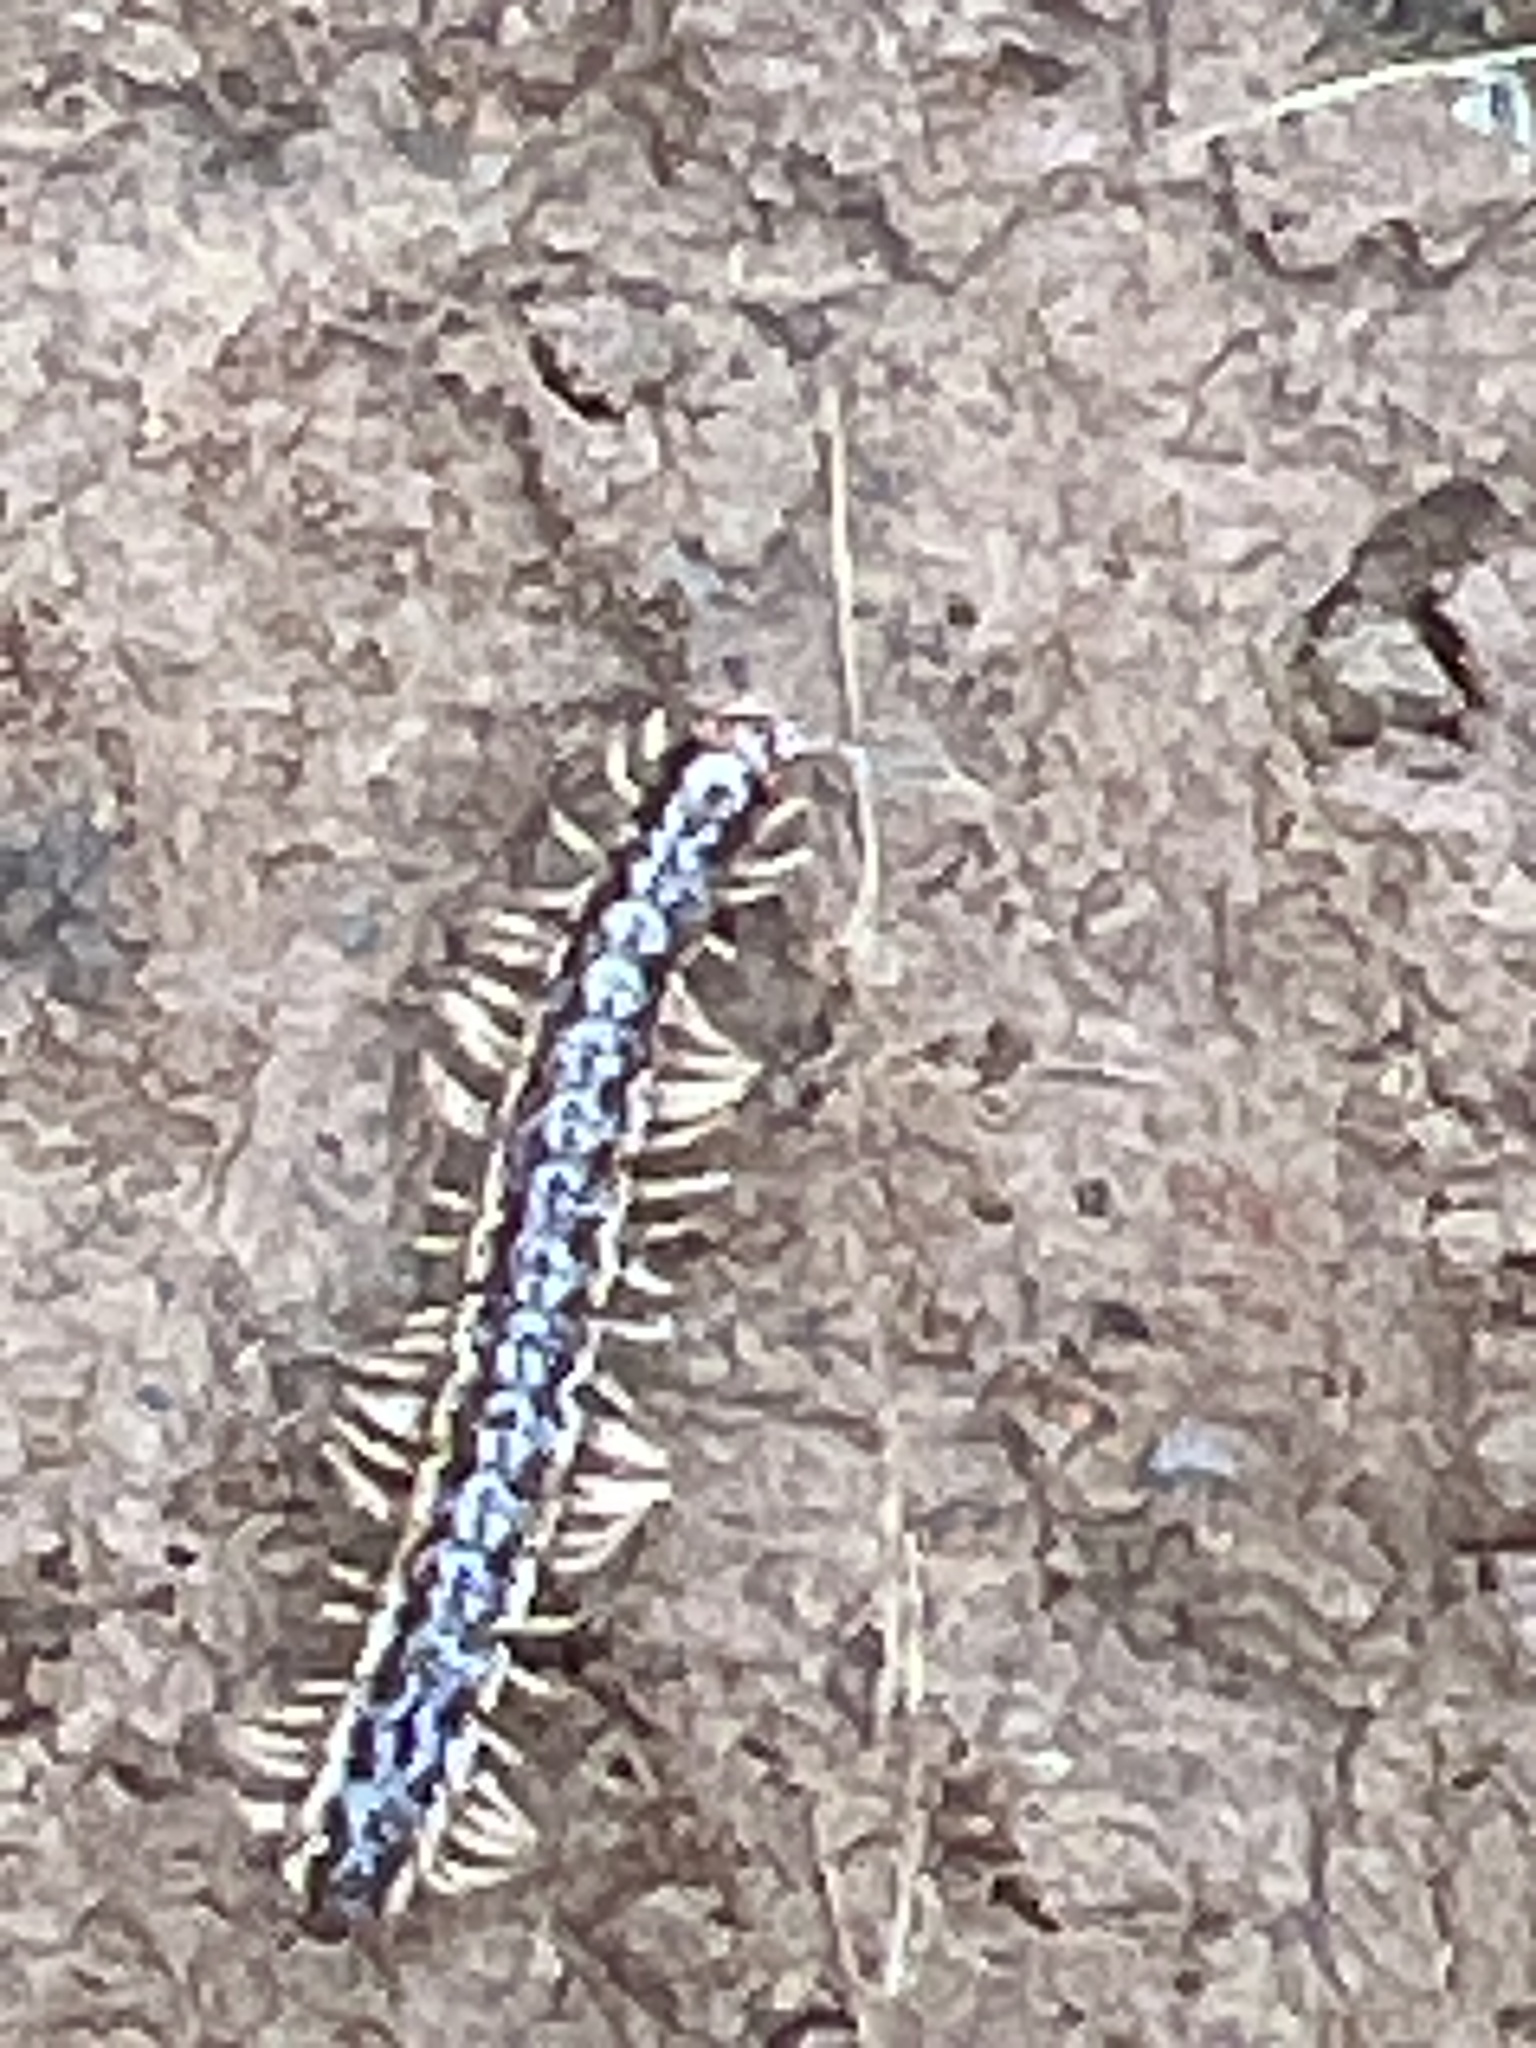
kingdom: Animalia
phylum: Arthropoda
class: Diplopoda
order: Polydesmida
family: Paradoxosomatidae
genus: Oxidus
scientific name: Oxidus gracilis
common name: Greenhouse millipede
